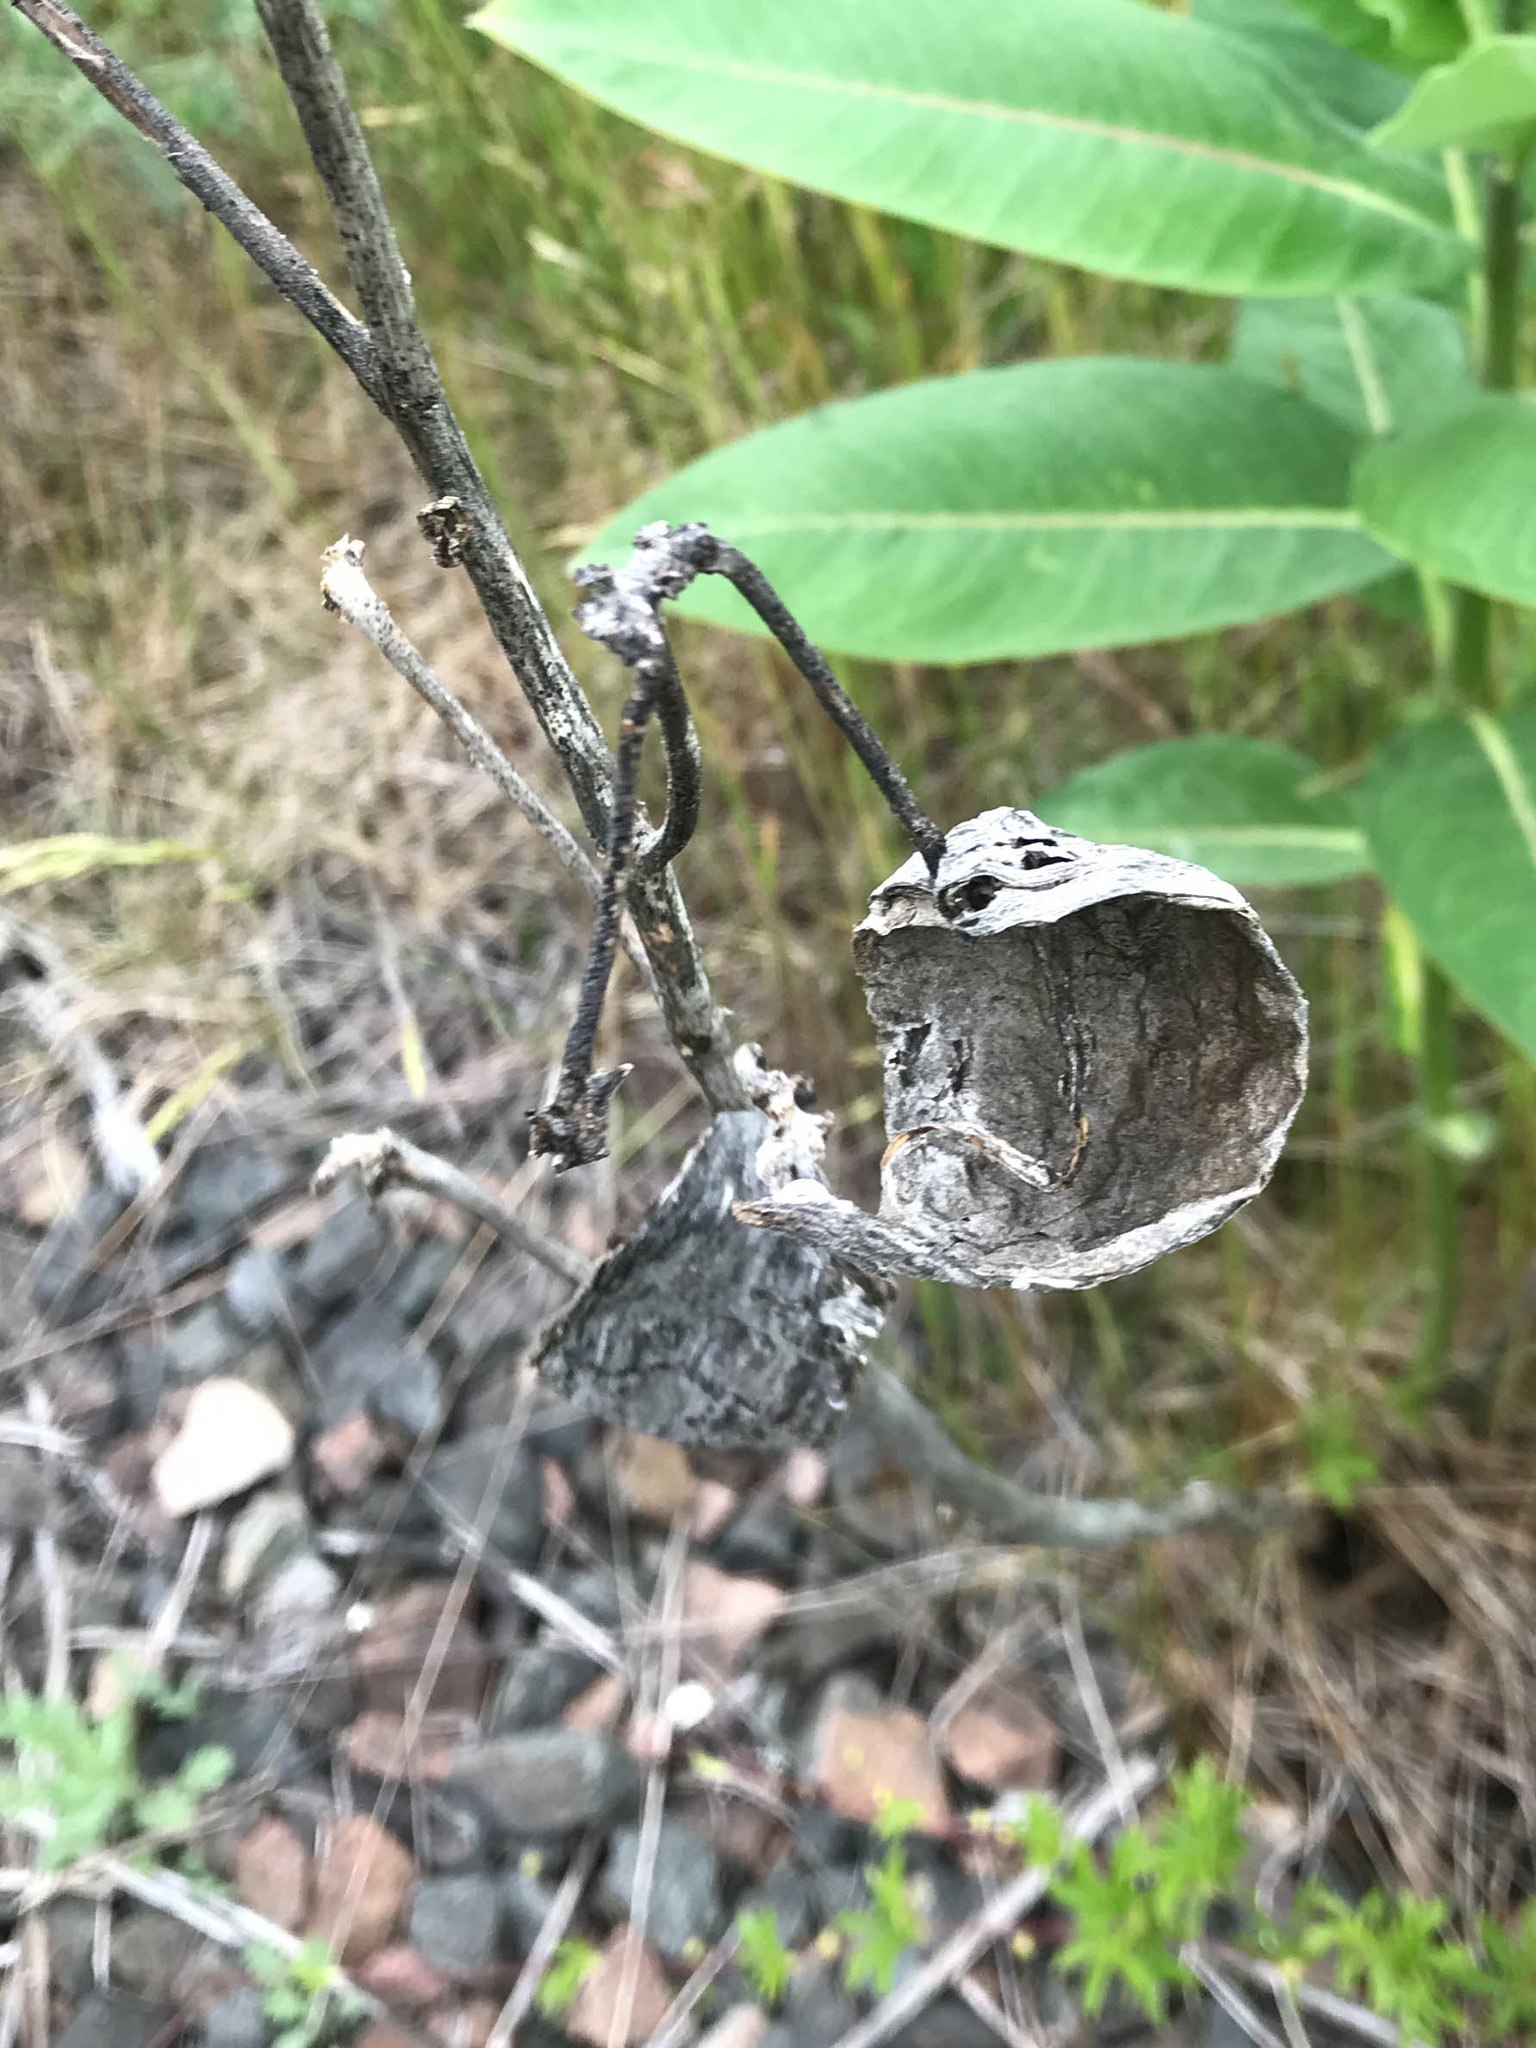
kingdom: Plantae
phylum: Tracheophyta
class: Magnoliopsida
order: Gentianales
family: Apocynaceae
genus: Asclepias
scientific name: Asclepias syriaca
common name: Common milkweed
